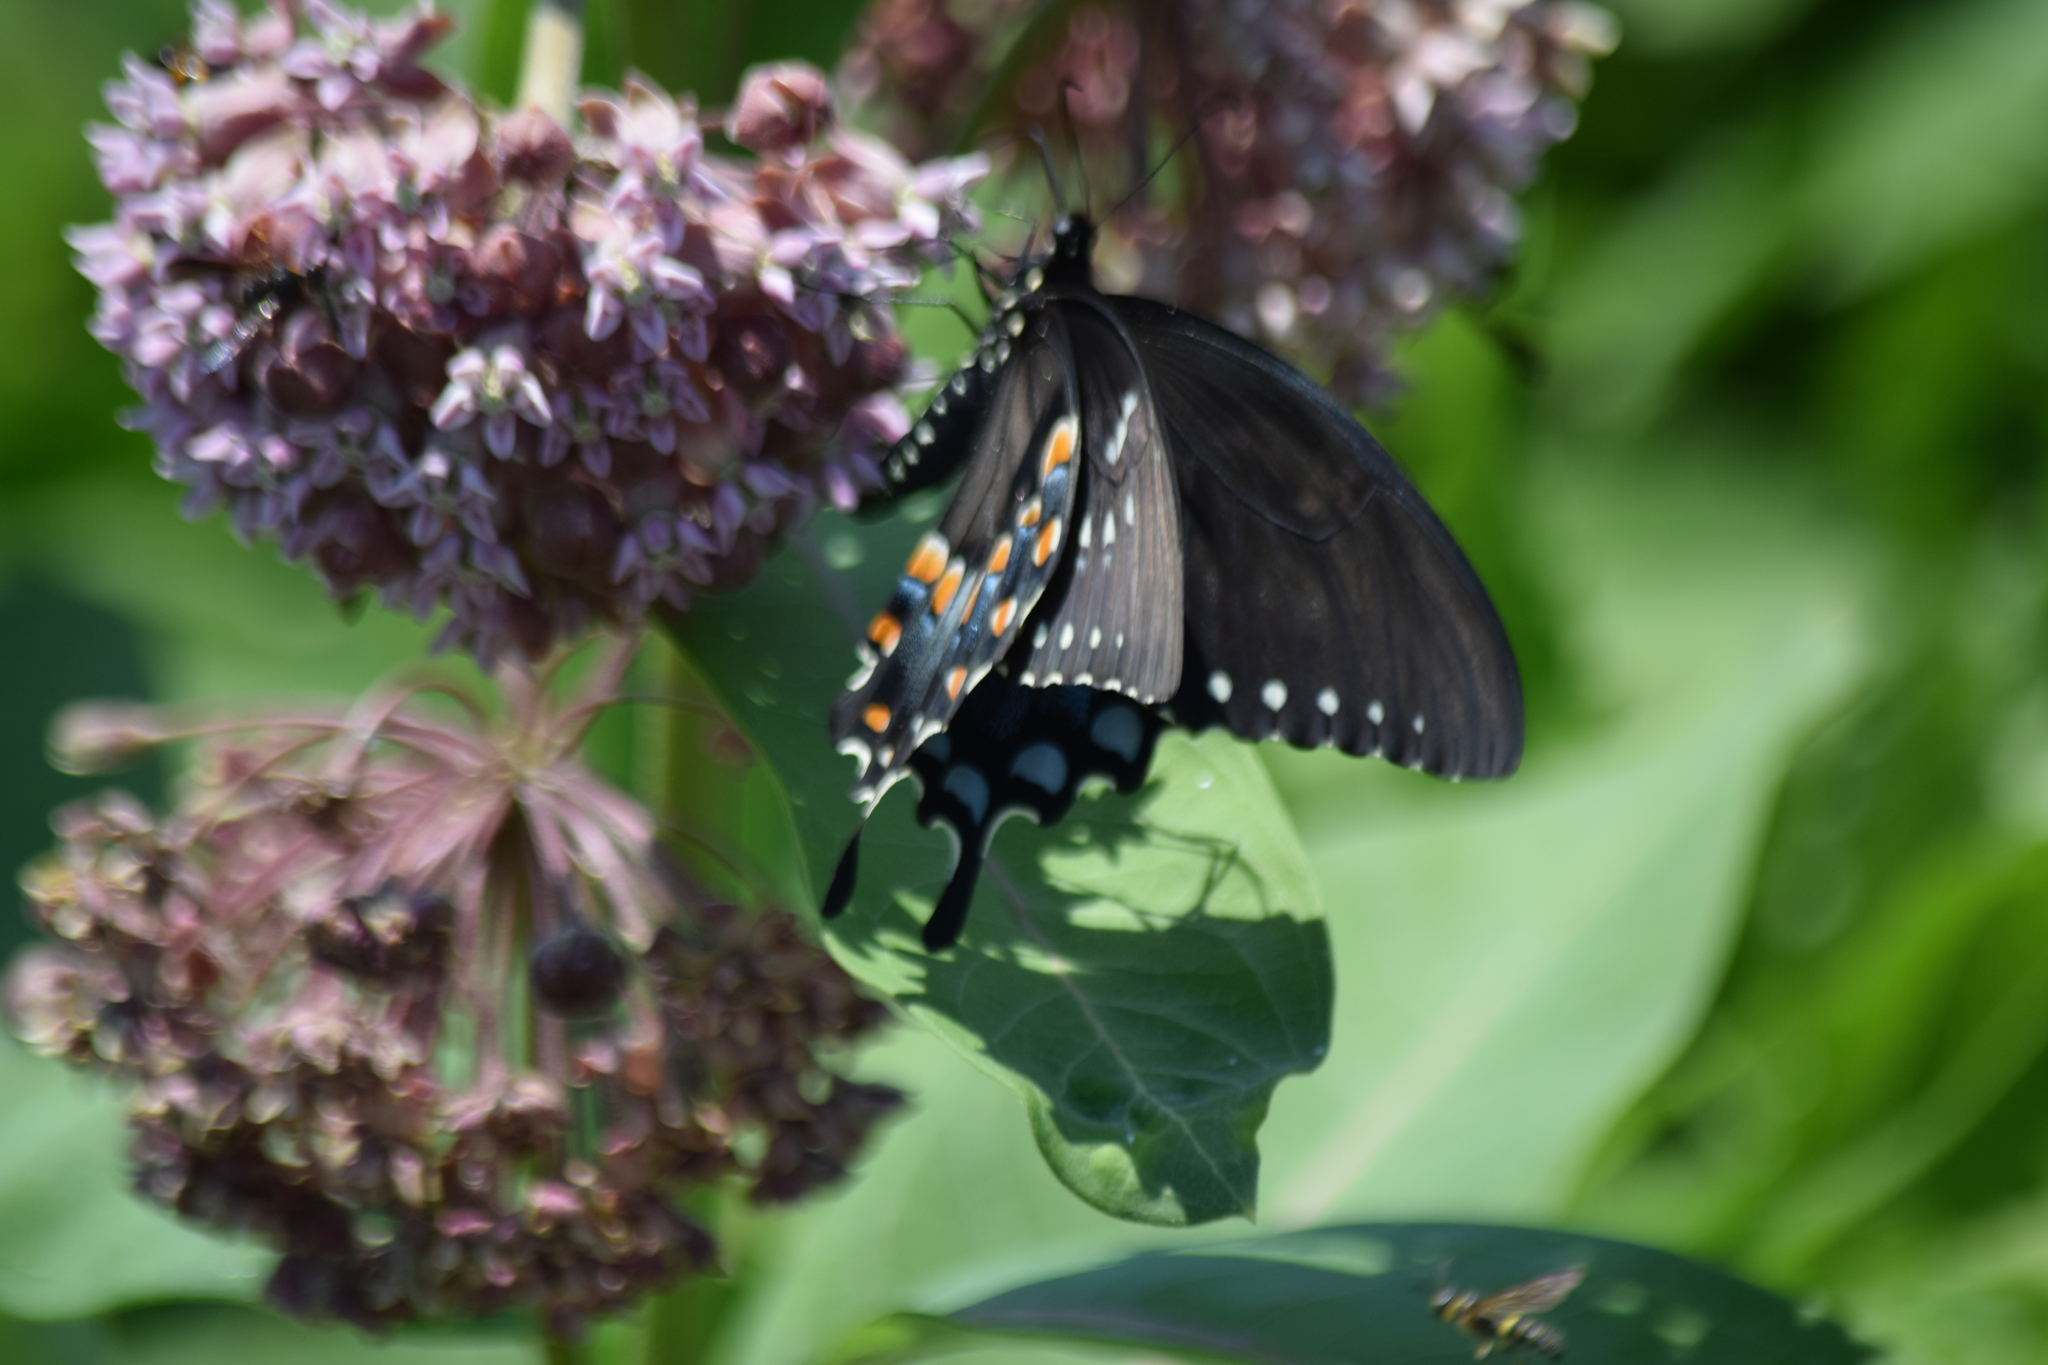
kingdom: Animalia
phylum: Arthropoda
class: Insecta
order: Lepidoptera
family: Papilionidae
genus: Papilio
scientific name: Papilio troilus
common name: Spicebush swallowtail
